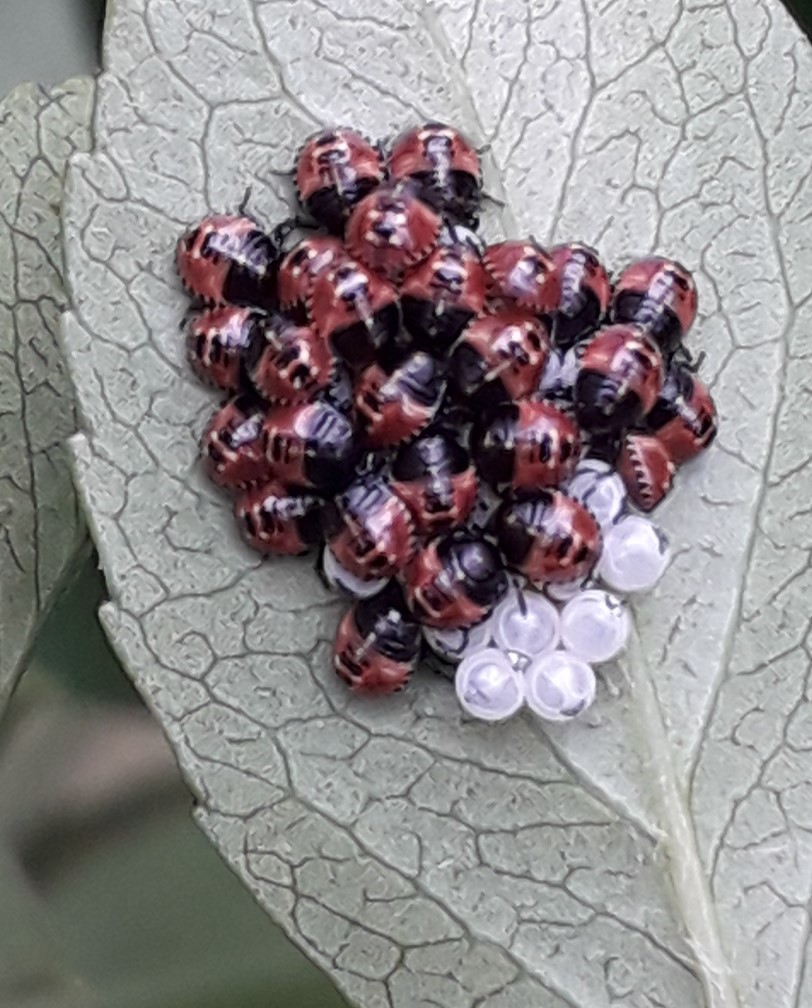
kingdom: Animalia
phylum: Arthropoda
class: Insecta
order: Hemiptera
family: Pentatomidae
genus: Palomena
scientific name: Palomena prasina
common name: Green shieldbug
